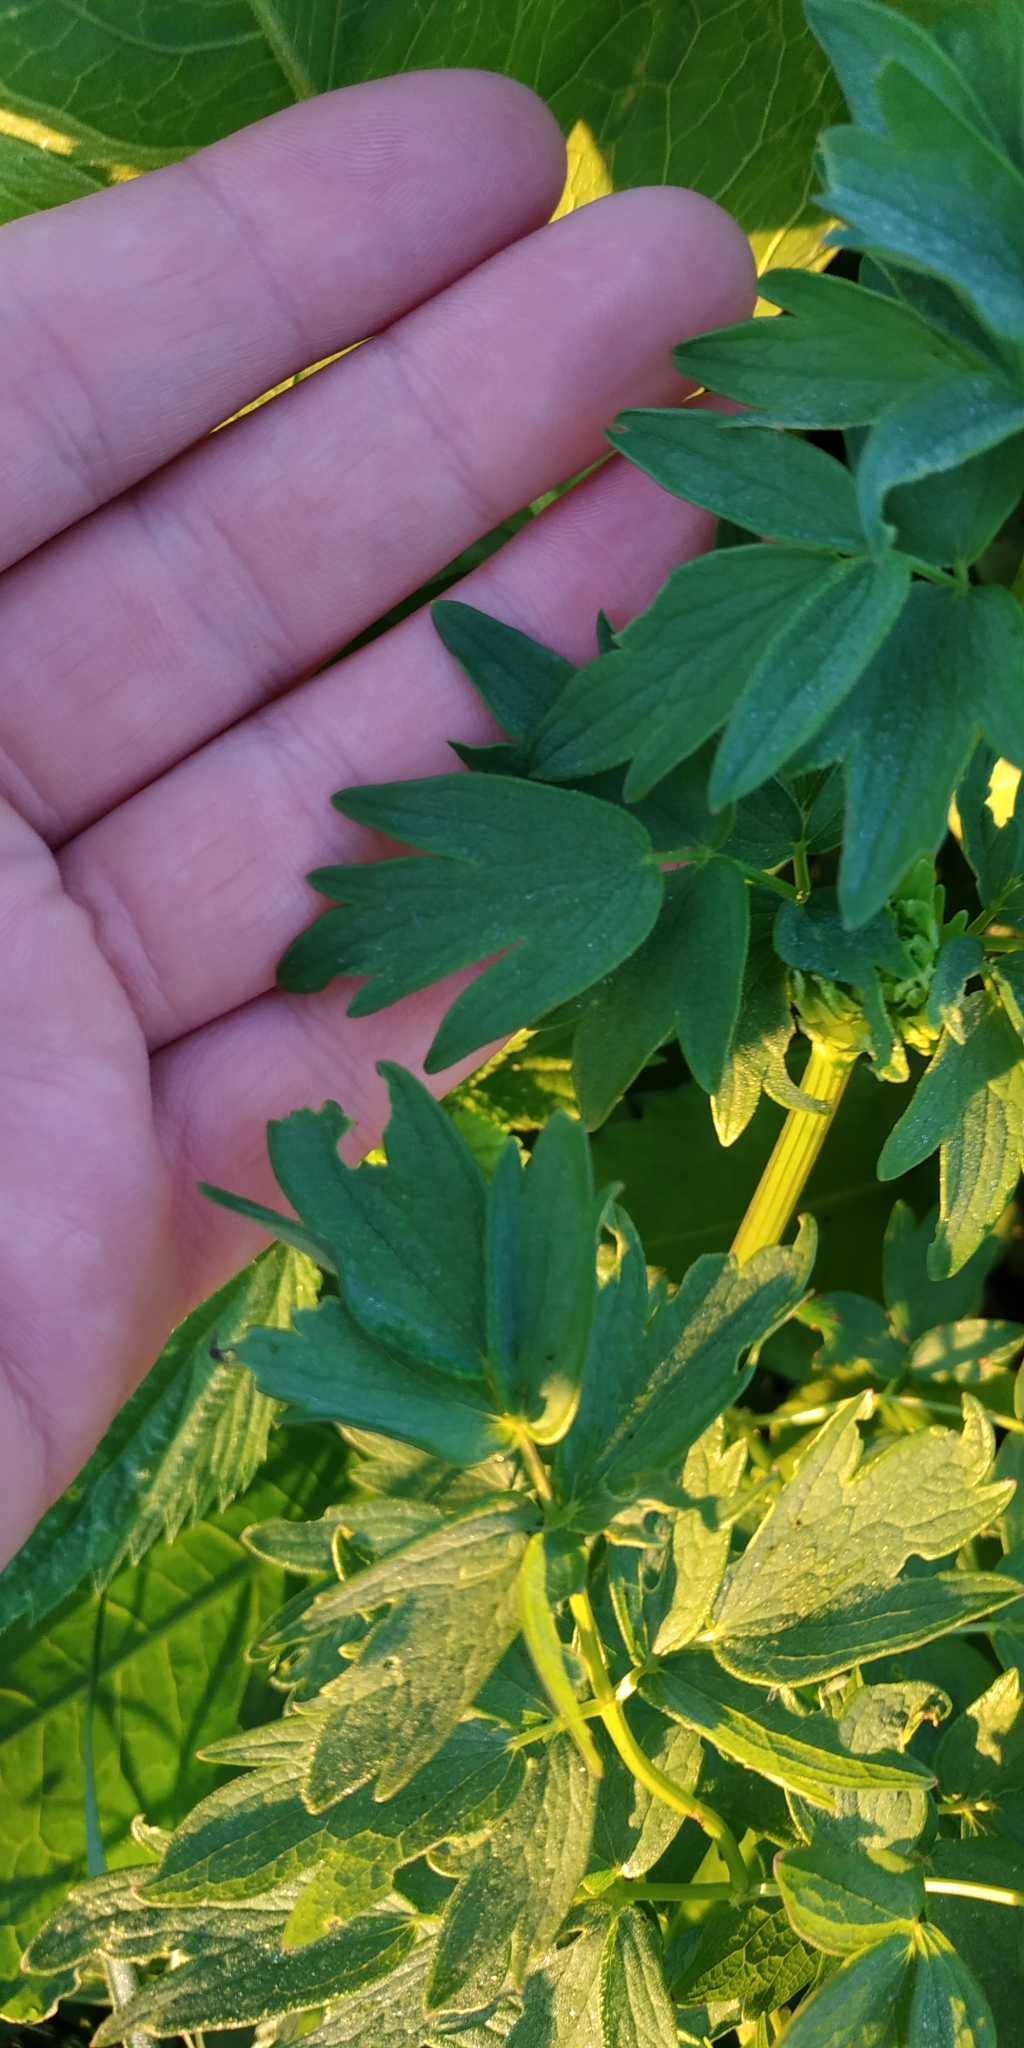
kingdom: Plantae
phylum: Tracheophyta
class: Magnoliopsida
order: Ranunculales
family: Ranunculaceae
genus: Thalictrum
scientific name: Thalictrum flavum
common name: Common meadow-rue
